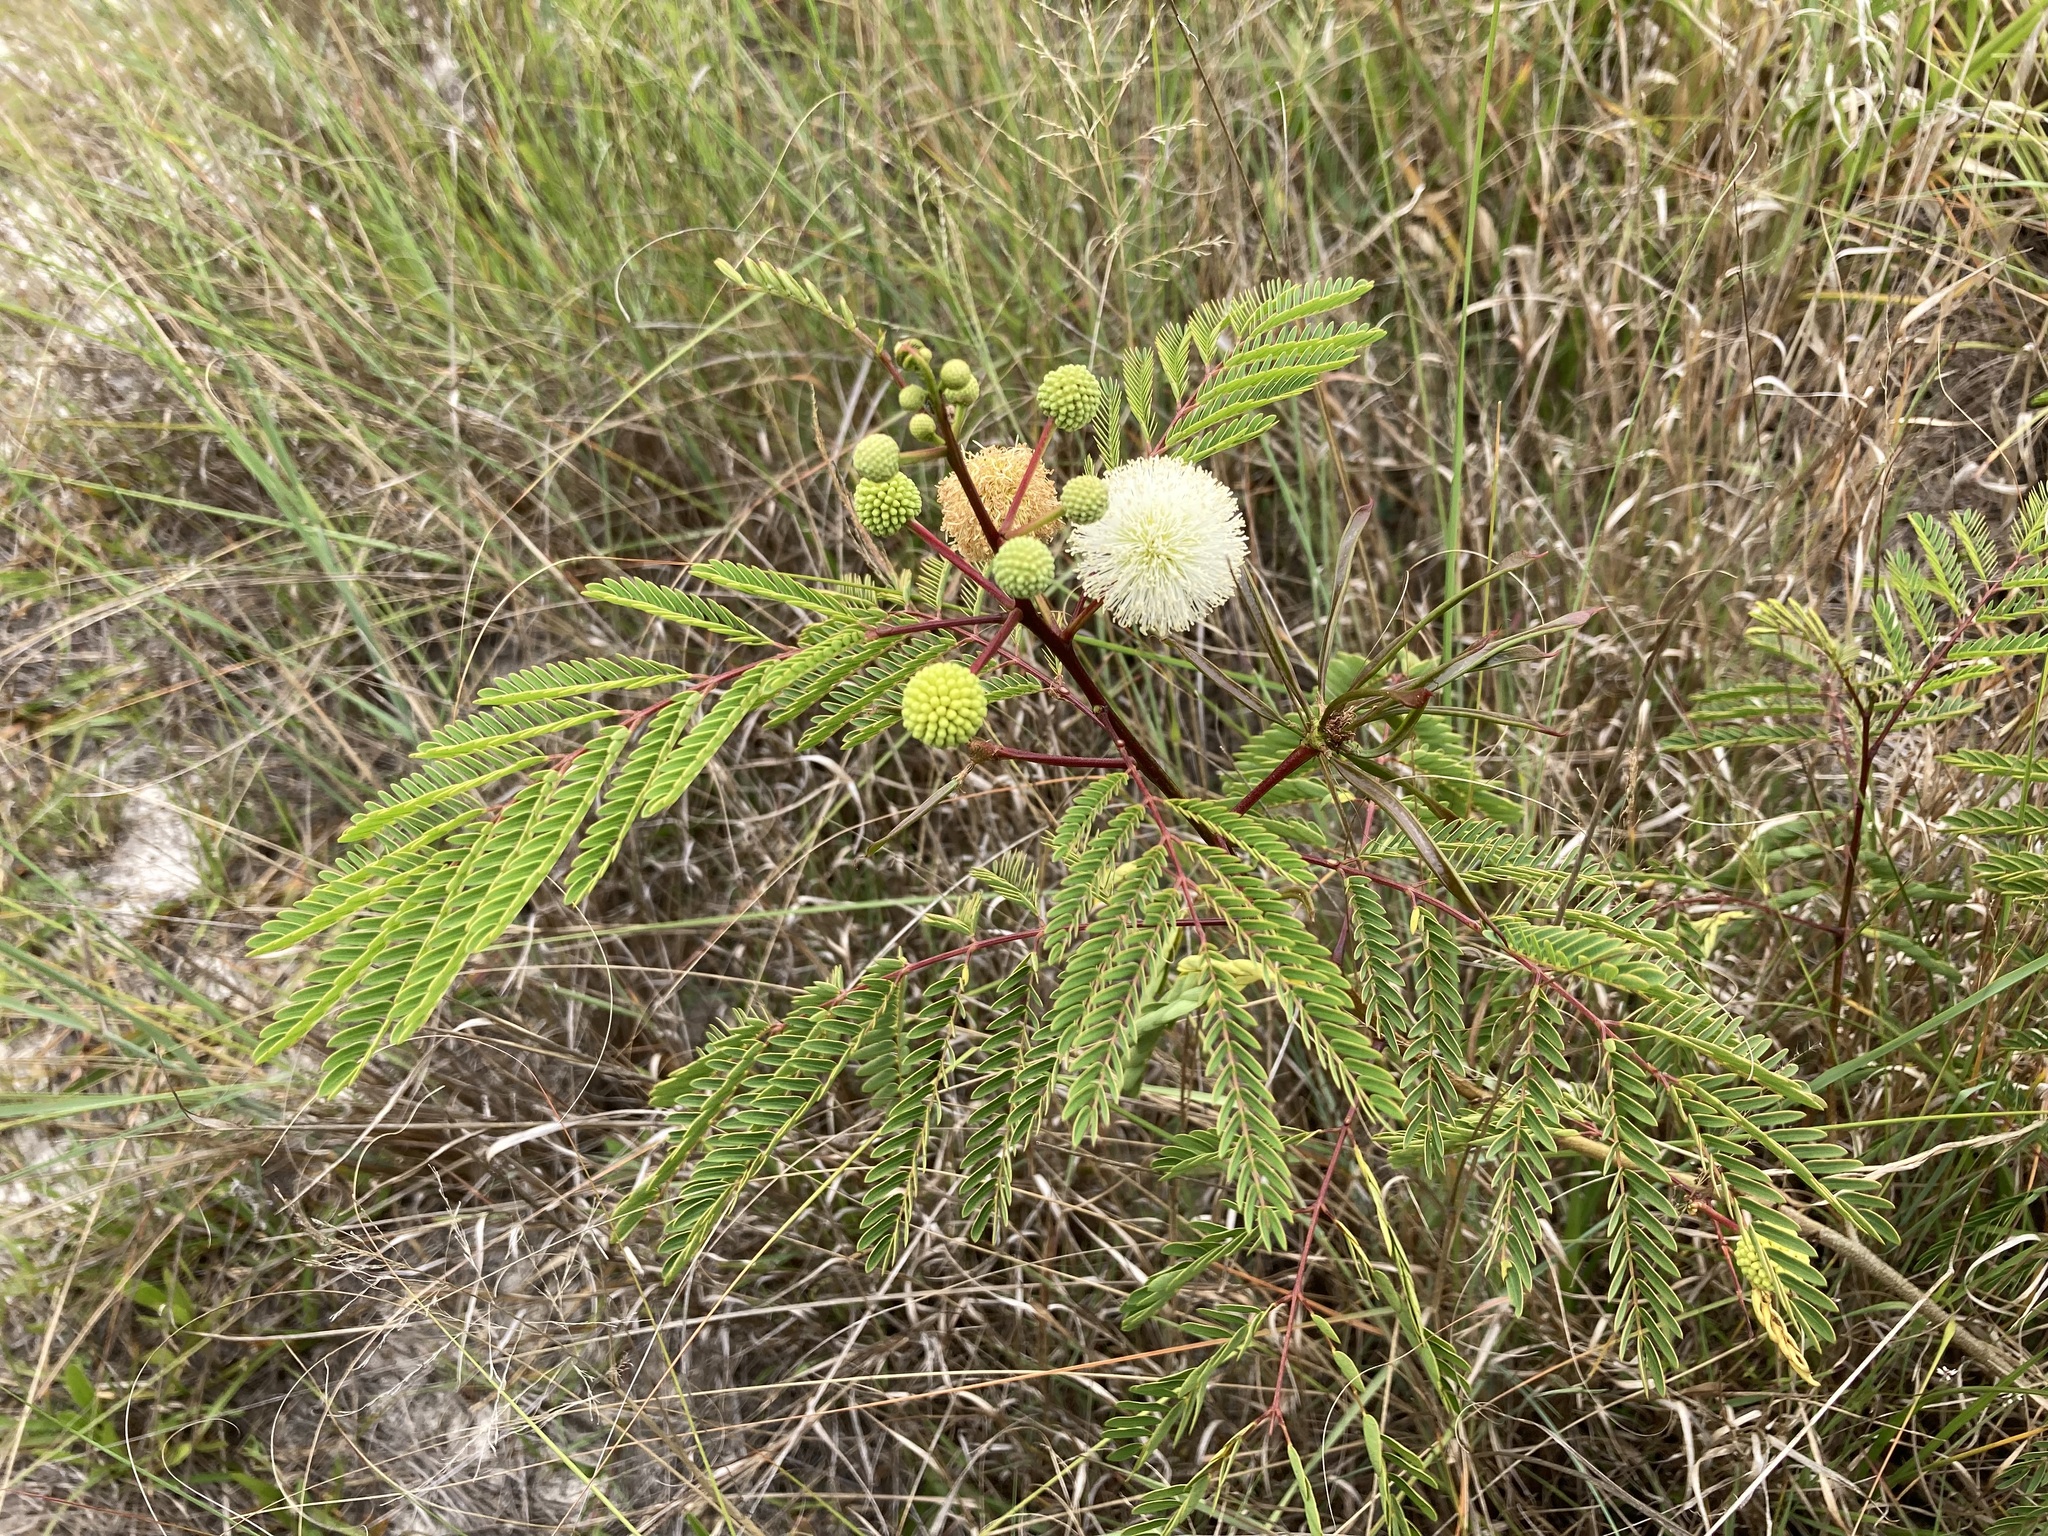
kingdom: Plantae
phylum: Tracheophyta
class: Magnoliopsida
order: Fabales
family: Fabaceae
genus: Leucaena
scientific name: Leucaena leucocephala
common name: White leadtree
